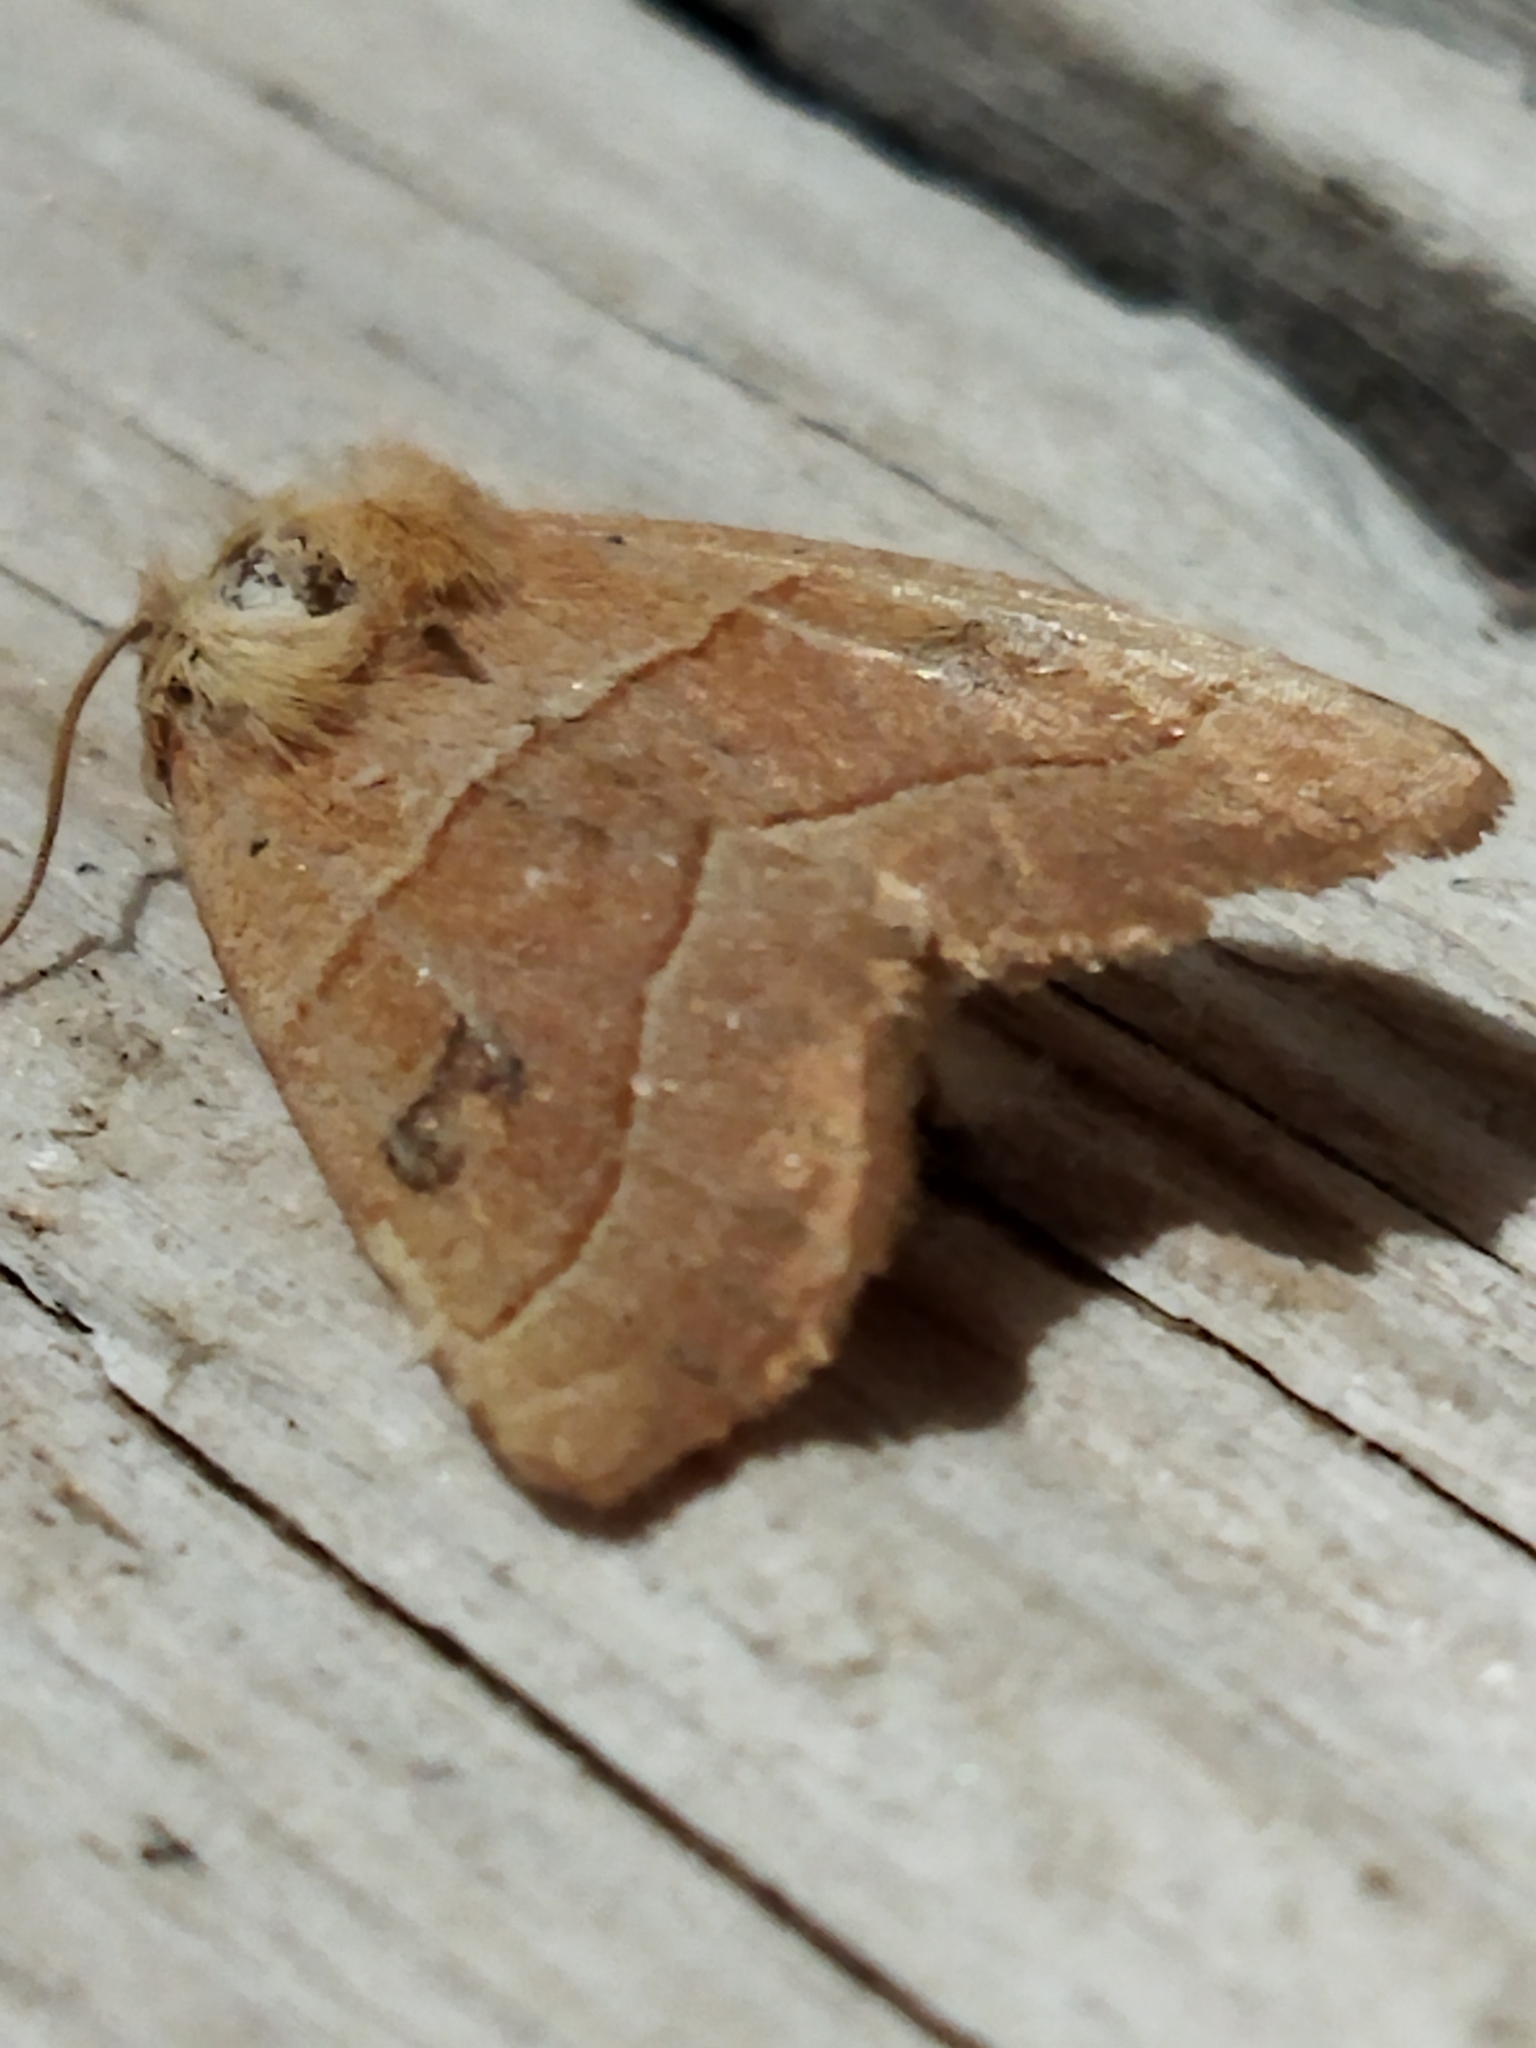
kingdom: Animalia
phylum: Arthropoda
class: Insecta
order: Lepidoptera
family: Noctuidae
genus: Atethmia
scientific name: Atethmia centrago
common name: Centre-barred sallow
